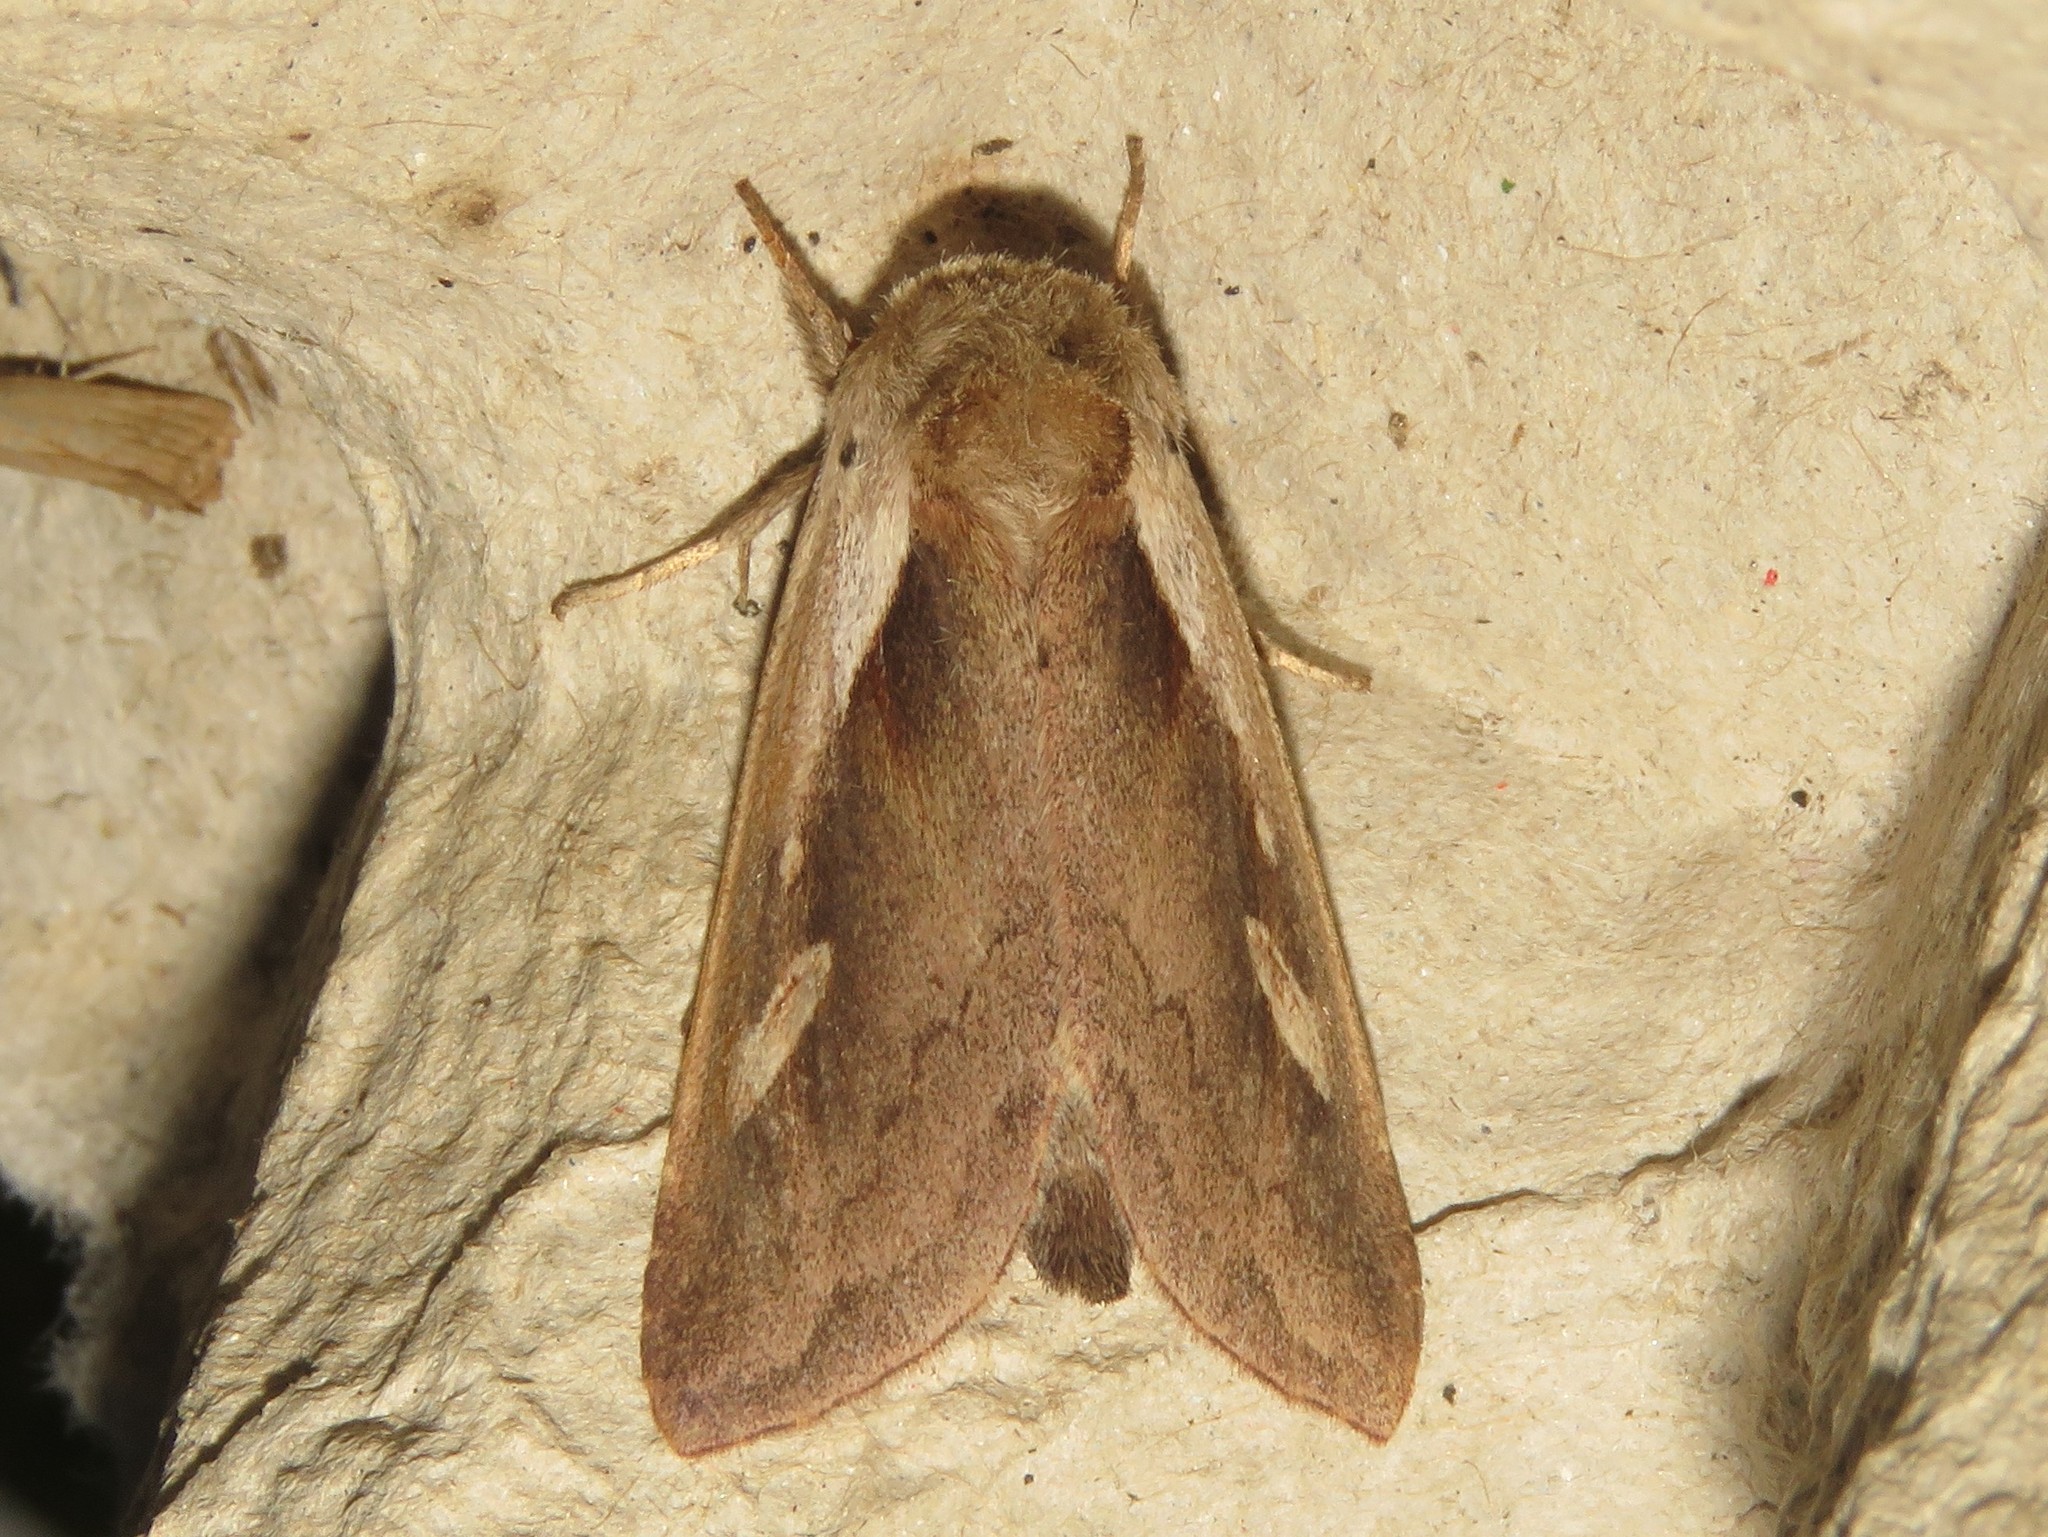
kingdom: Animalia
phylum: Arthropoda
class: Insecta
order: Lepidoptera
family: Noctuidae
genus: Bellura
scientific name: Bellura obliqua
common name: Cattail borer moth
